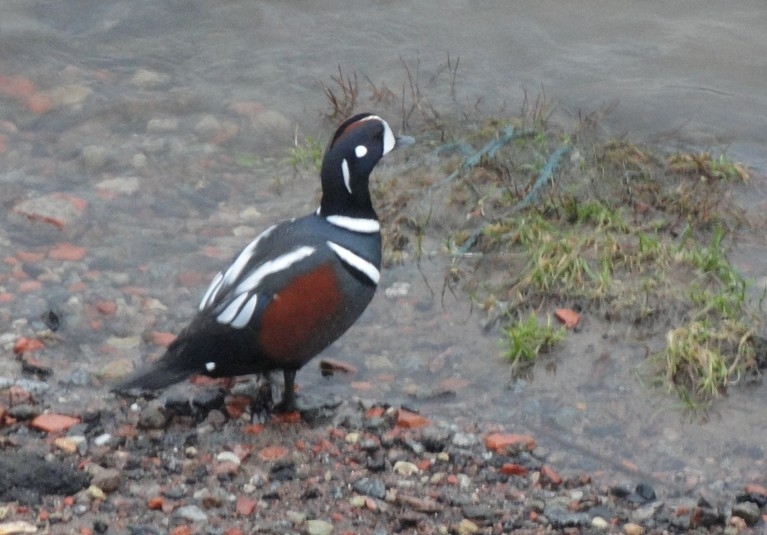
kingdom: Animalia
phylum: Chordata
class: Aves
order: Anseriformes
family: Anatidae
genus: Histrionicus
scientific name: Histrionicus histrionicus
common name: Harlequin duck
